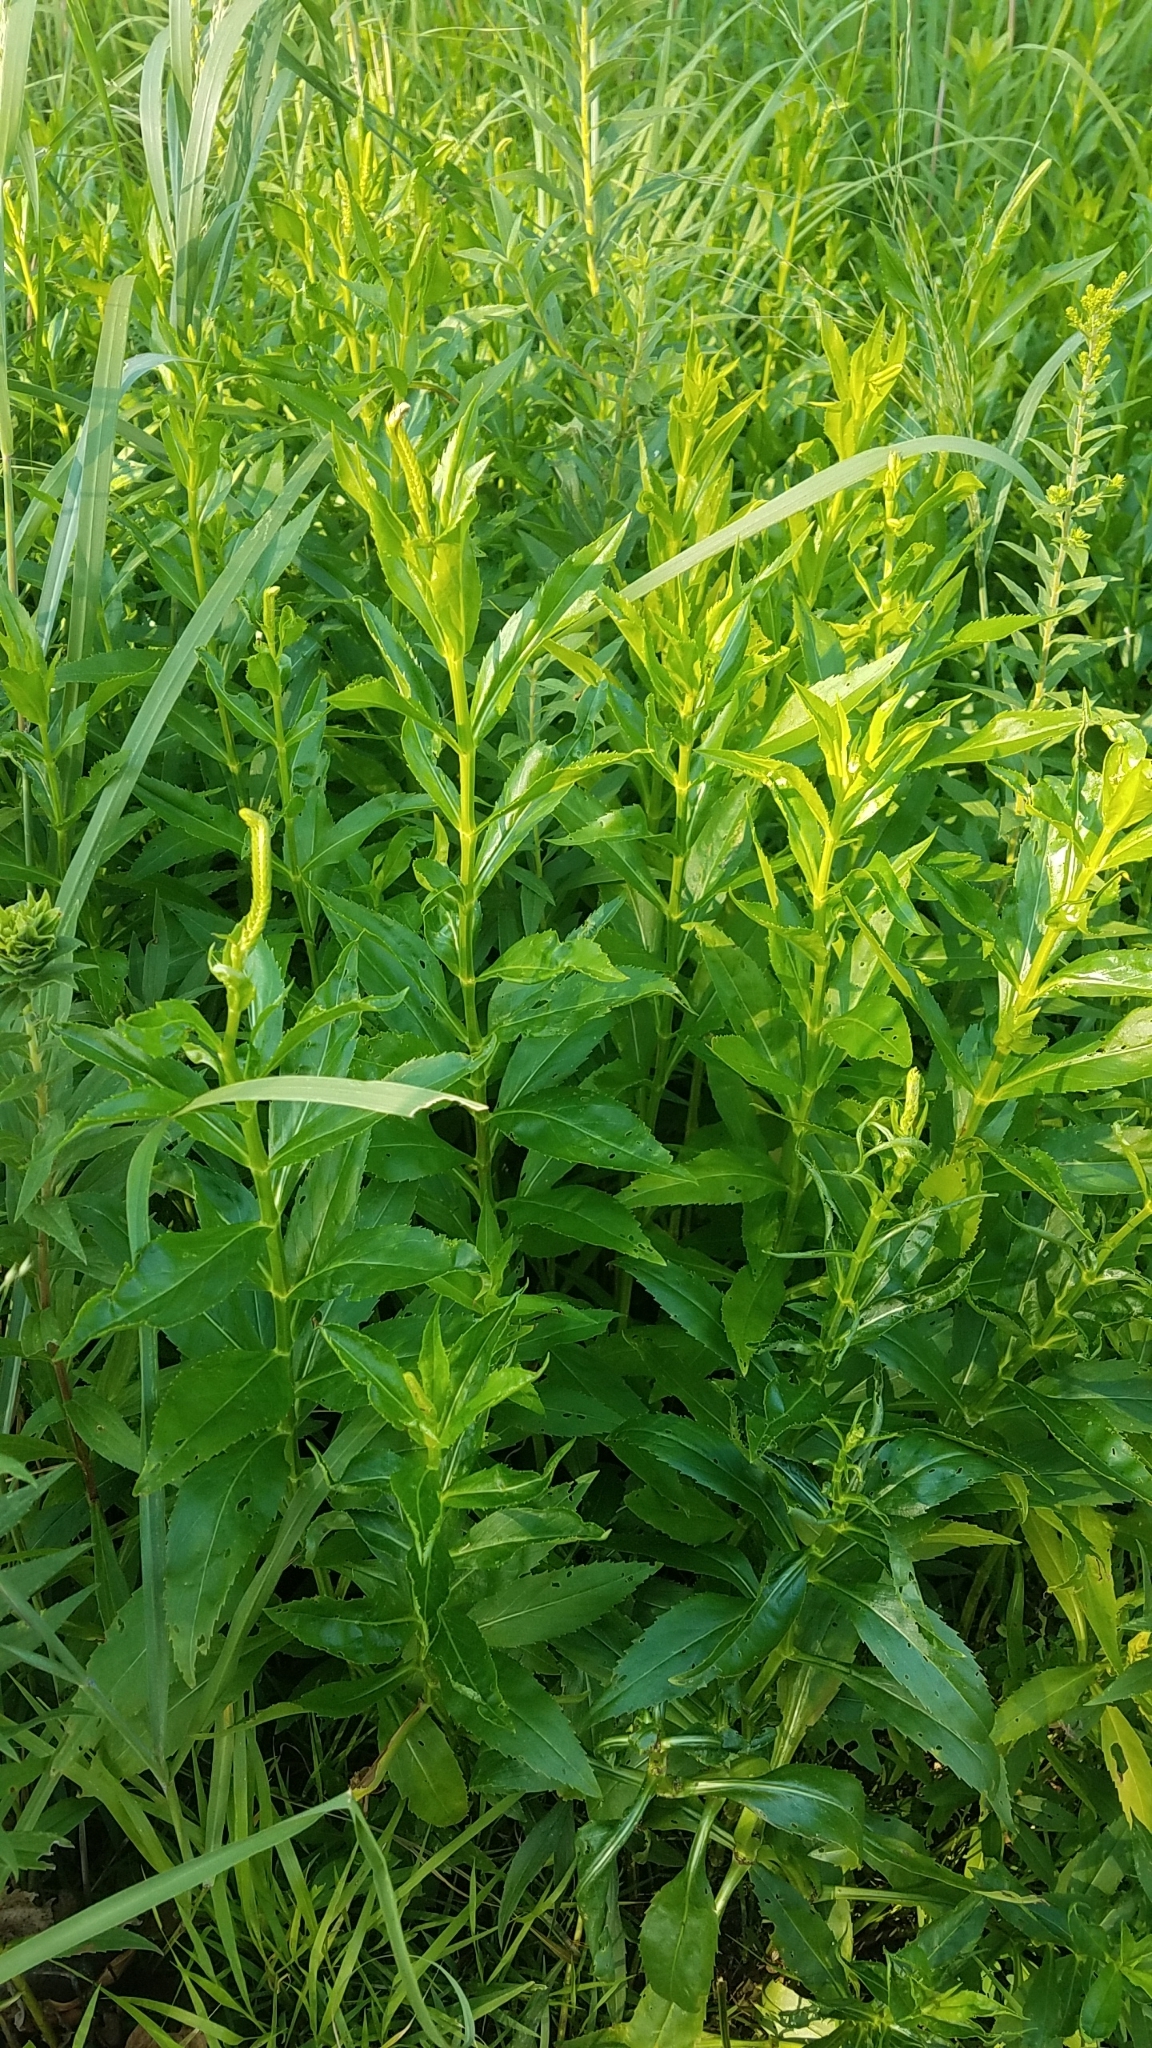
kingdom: Plantae
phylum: Tracheophyta
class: Magnoliopsida
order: Lamiales
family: Lamiaceae
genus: Physostegia
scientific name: Physostegia virginiana
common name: Obedient-plant
